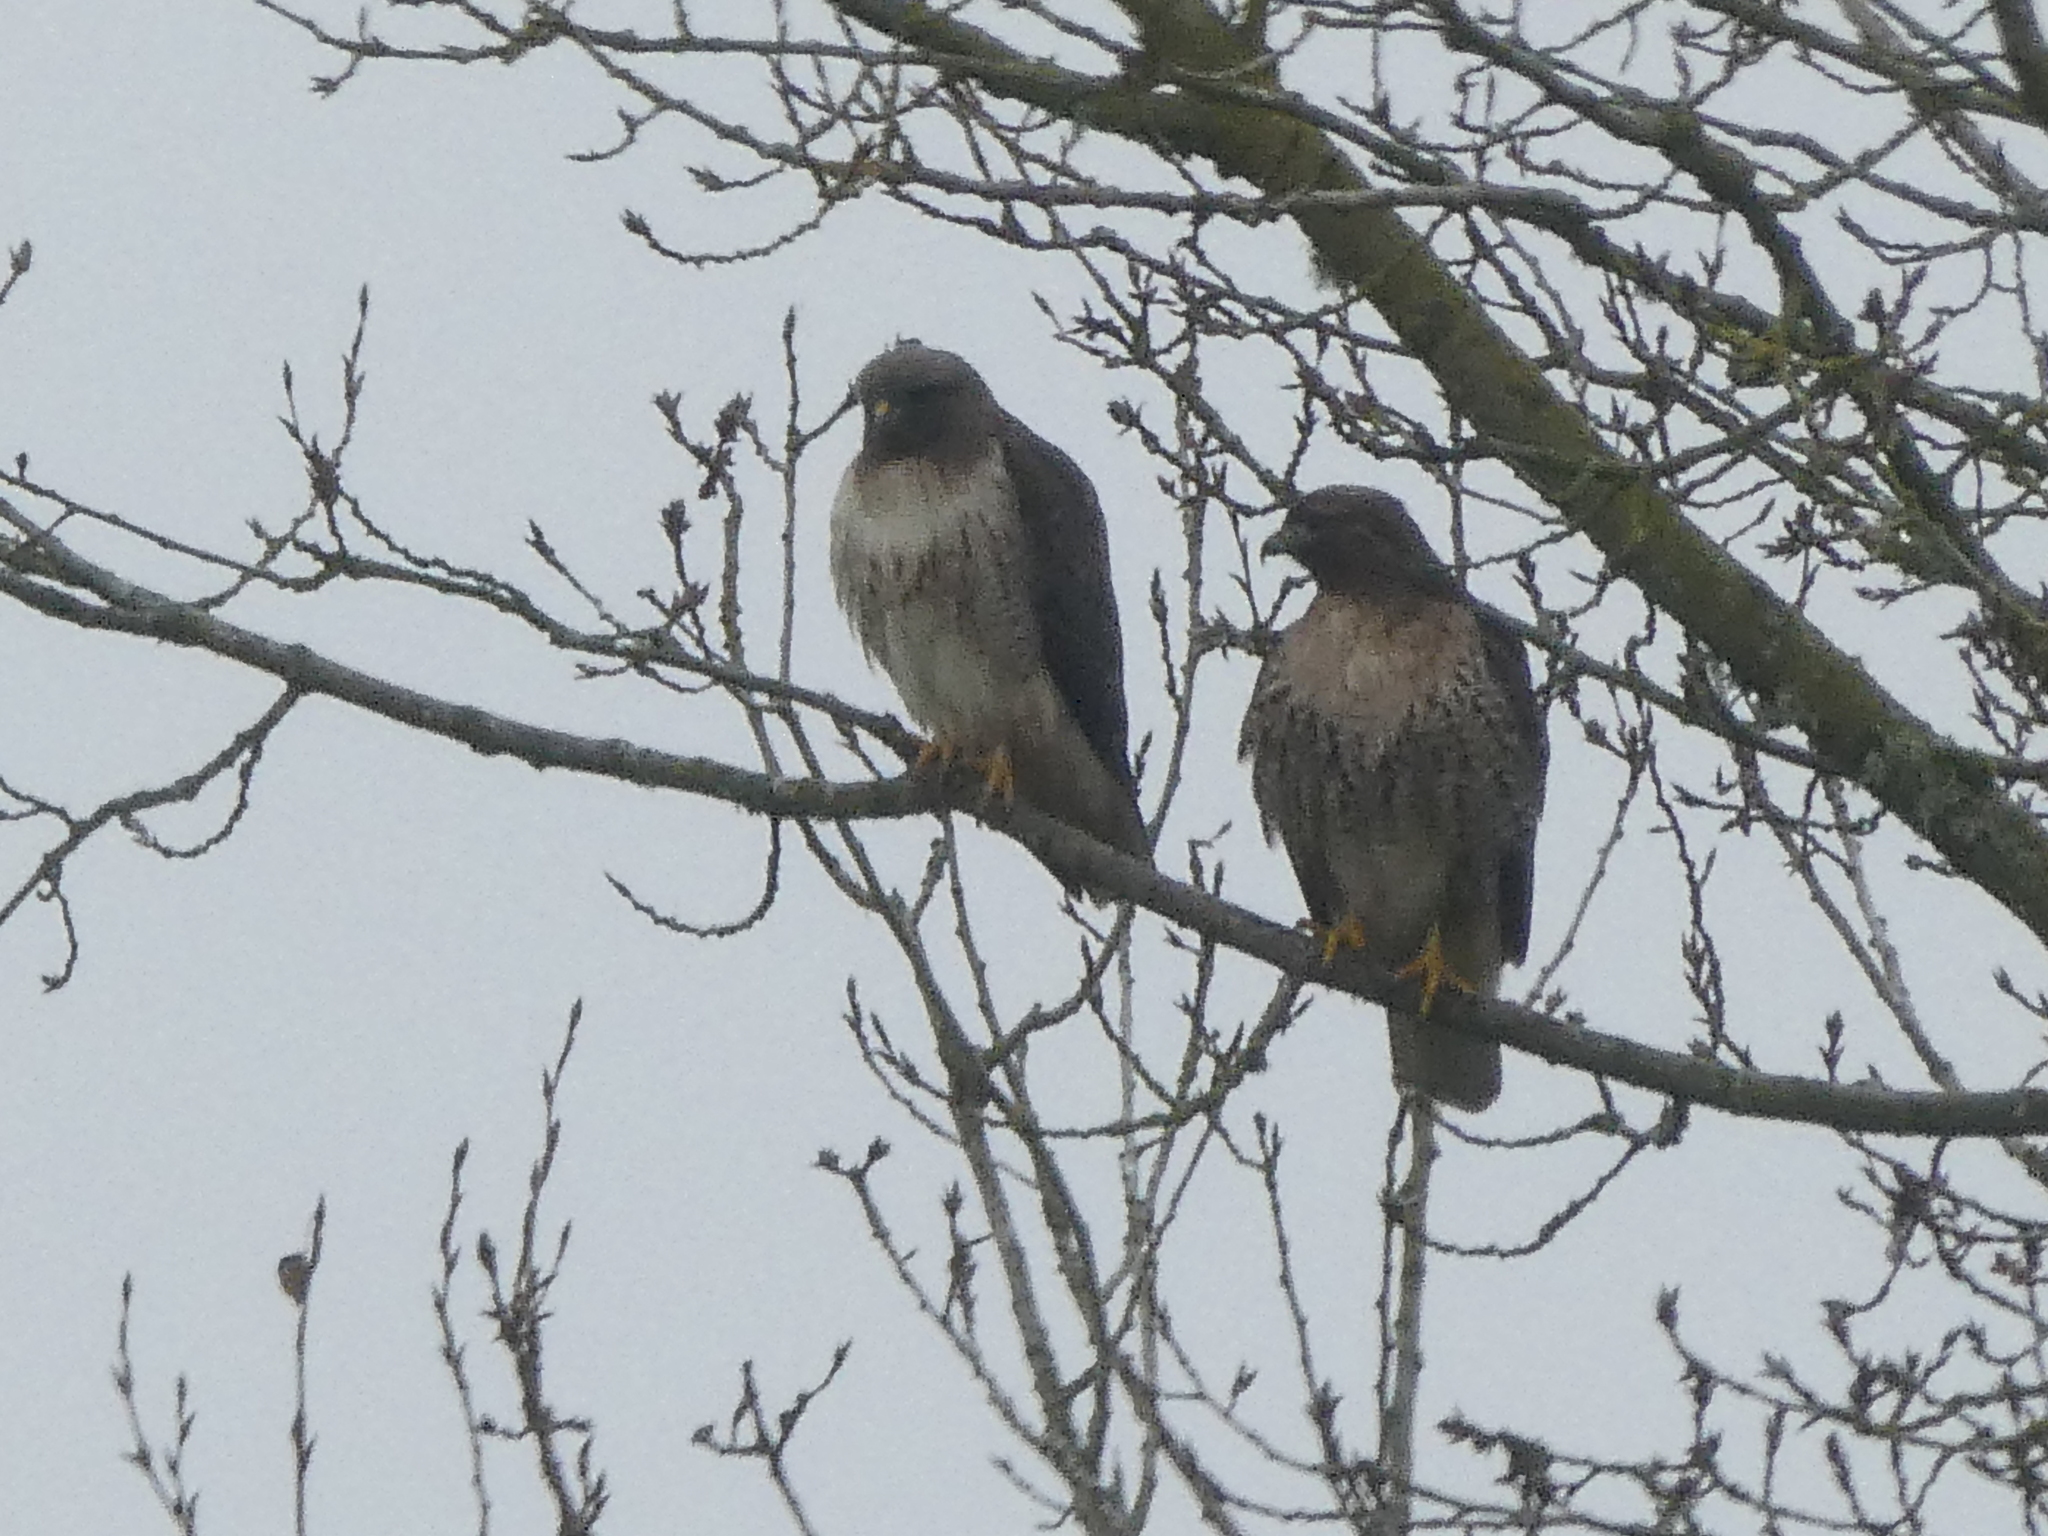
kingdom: Animalia
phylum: Chordata
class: Aves
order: Accipitriformes
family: Accipitridae
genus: Buteo
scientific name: Buteo jamaicensis
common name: Red-tailed hawk
